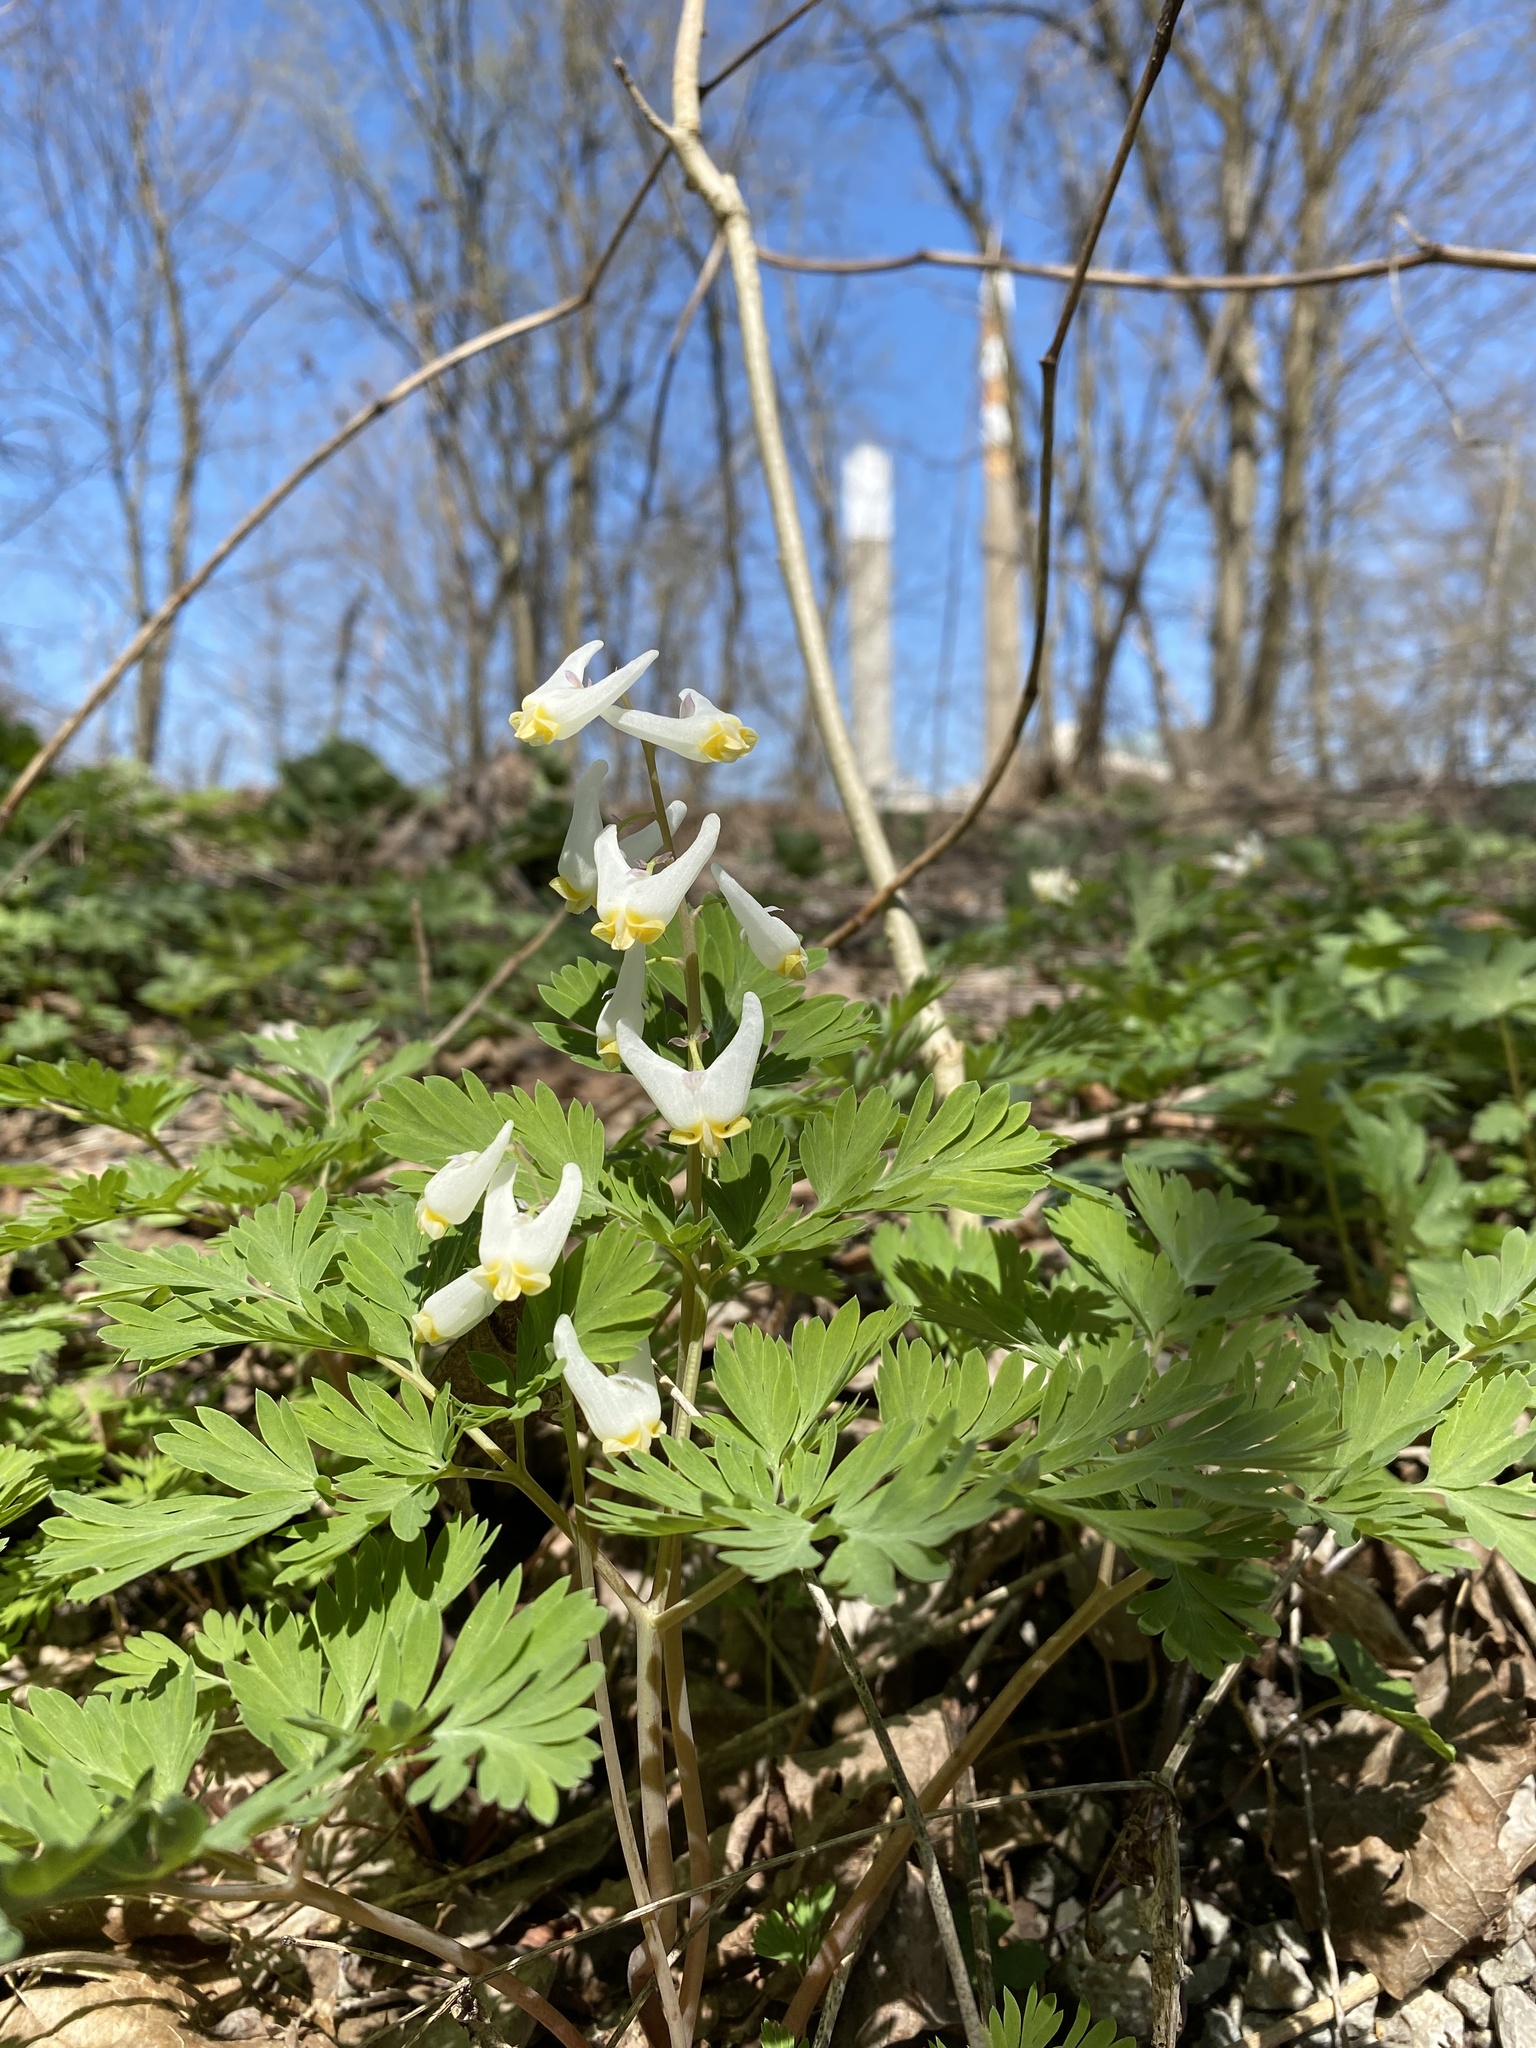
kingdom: Plantae
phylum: Tracheophyta
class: Magnoliopsida
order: Ranunculales
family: Papaveraceae
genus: Dicentra
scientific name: Dicentra cucullaria
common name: Dutchman's breeches
